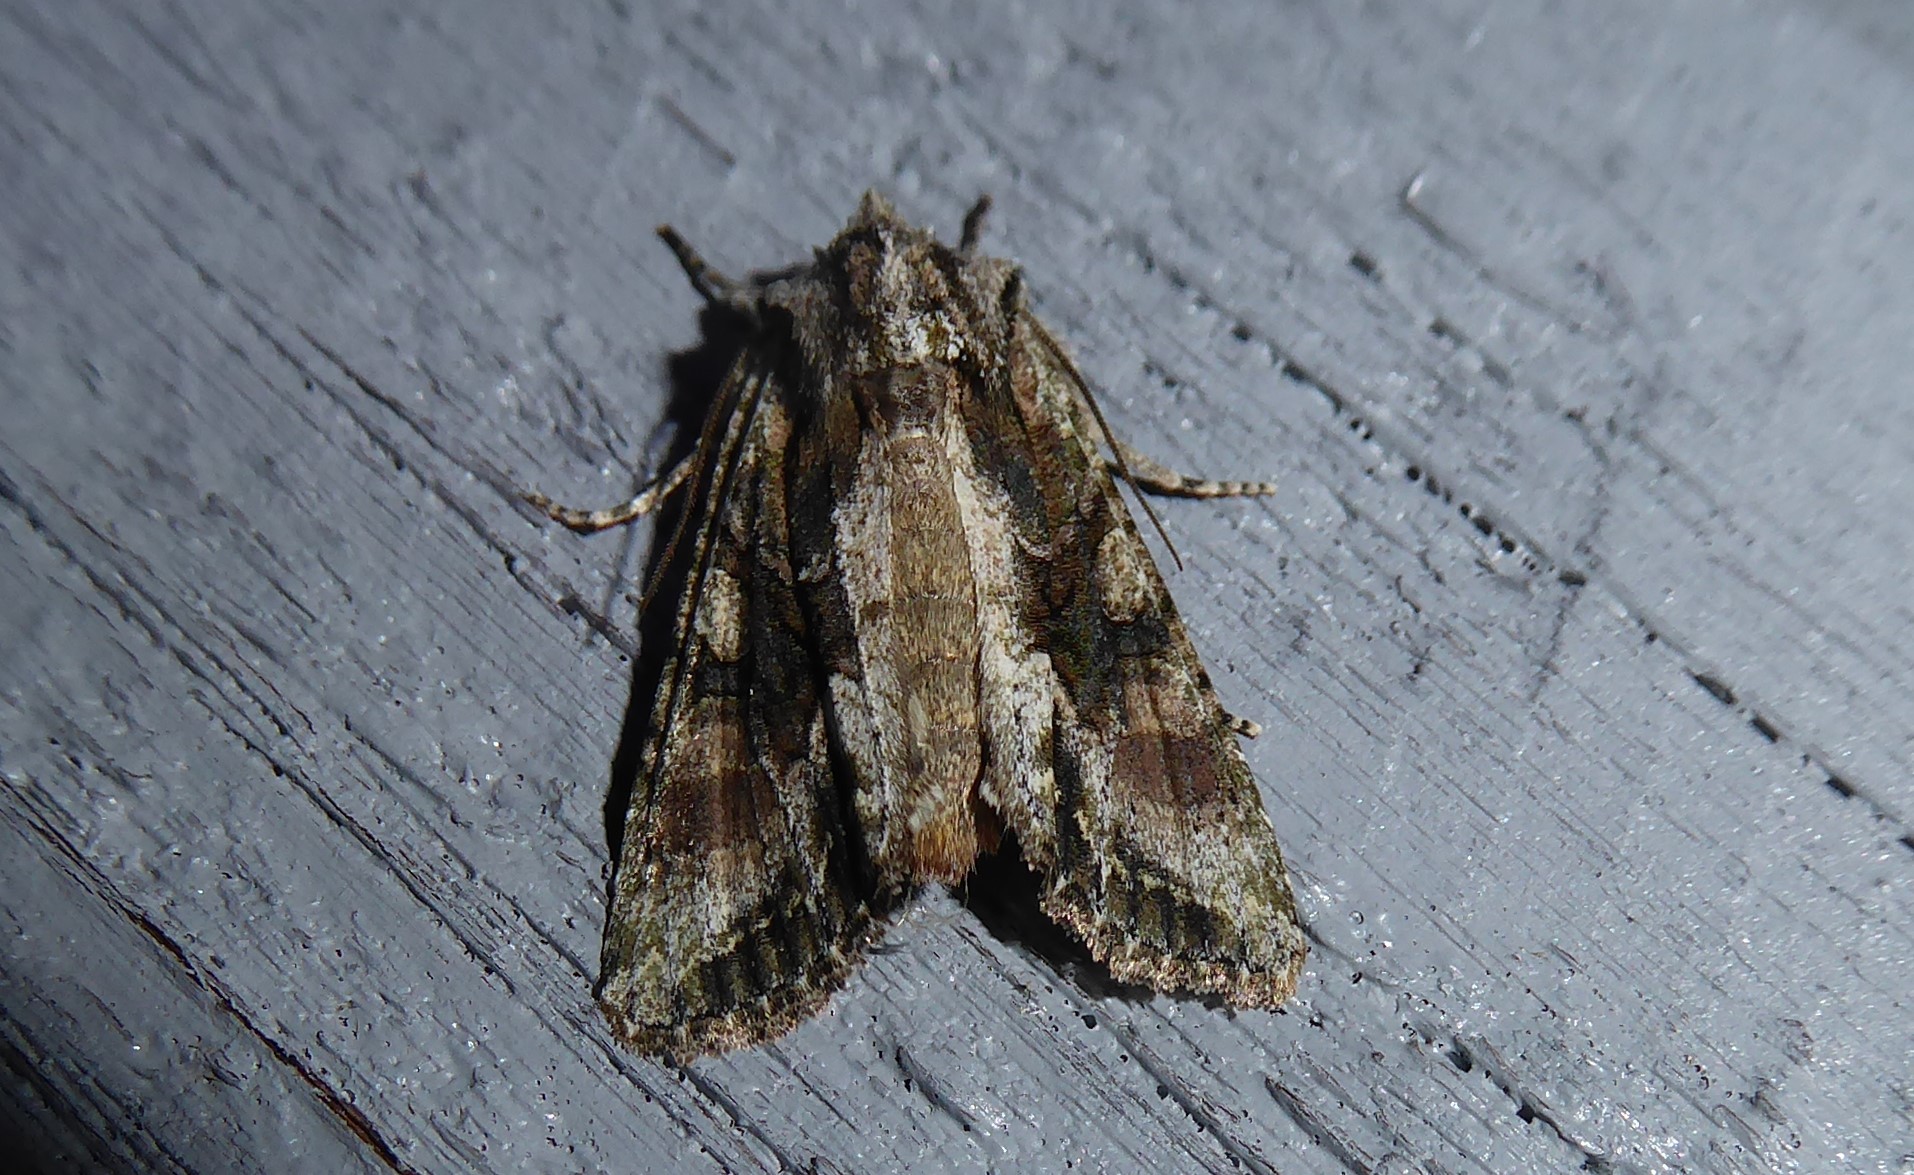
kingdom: Animalia
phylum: Arthropoda
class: Insecta
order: Lepidoptera
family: Noctuidae
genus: Ichneutica
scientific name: Ichneutica mutans
